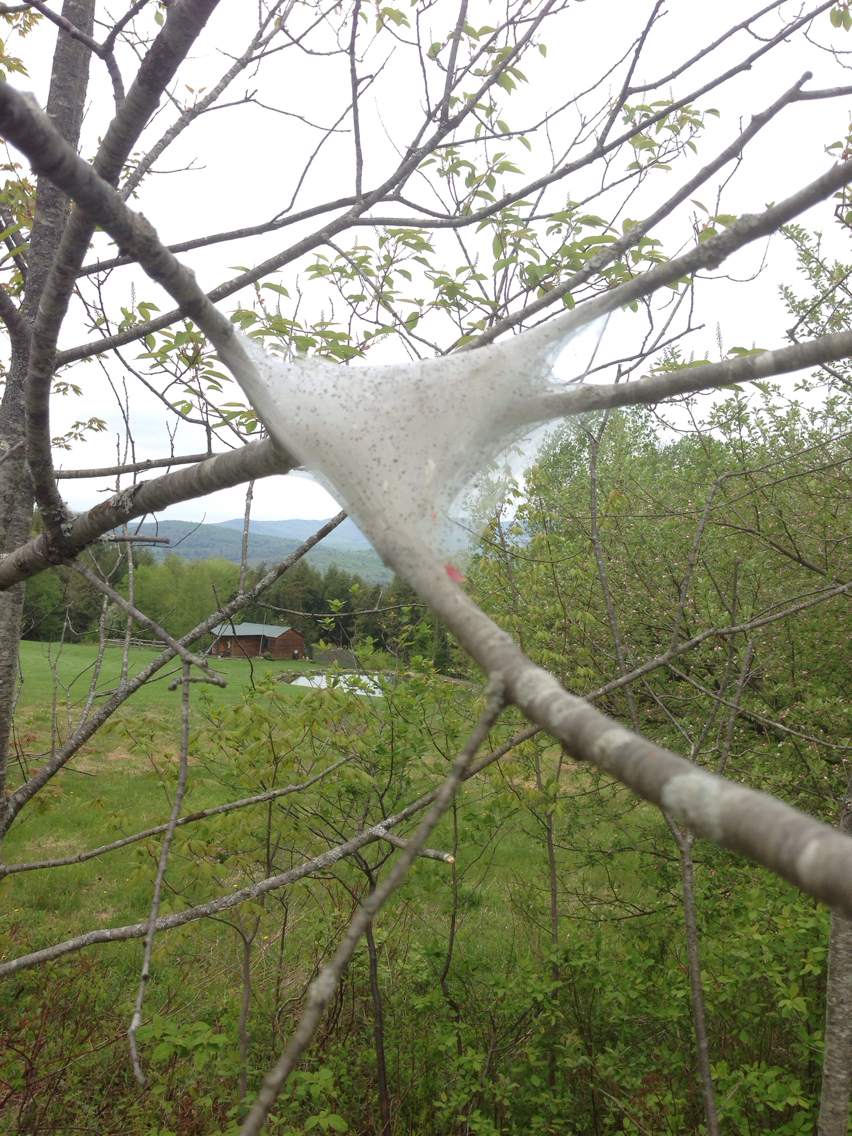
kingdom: Animalia
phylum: Arthropoda
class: Insecta
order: Lepidoptera
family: Lasiocampidae
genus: Malacosoma
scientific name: Malacosoma americana
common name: Eastern tent caterpillar moth
